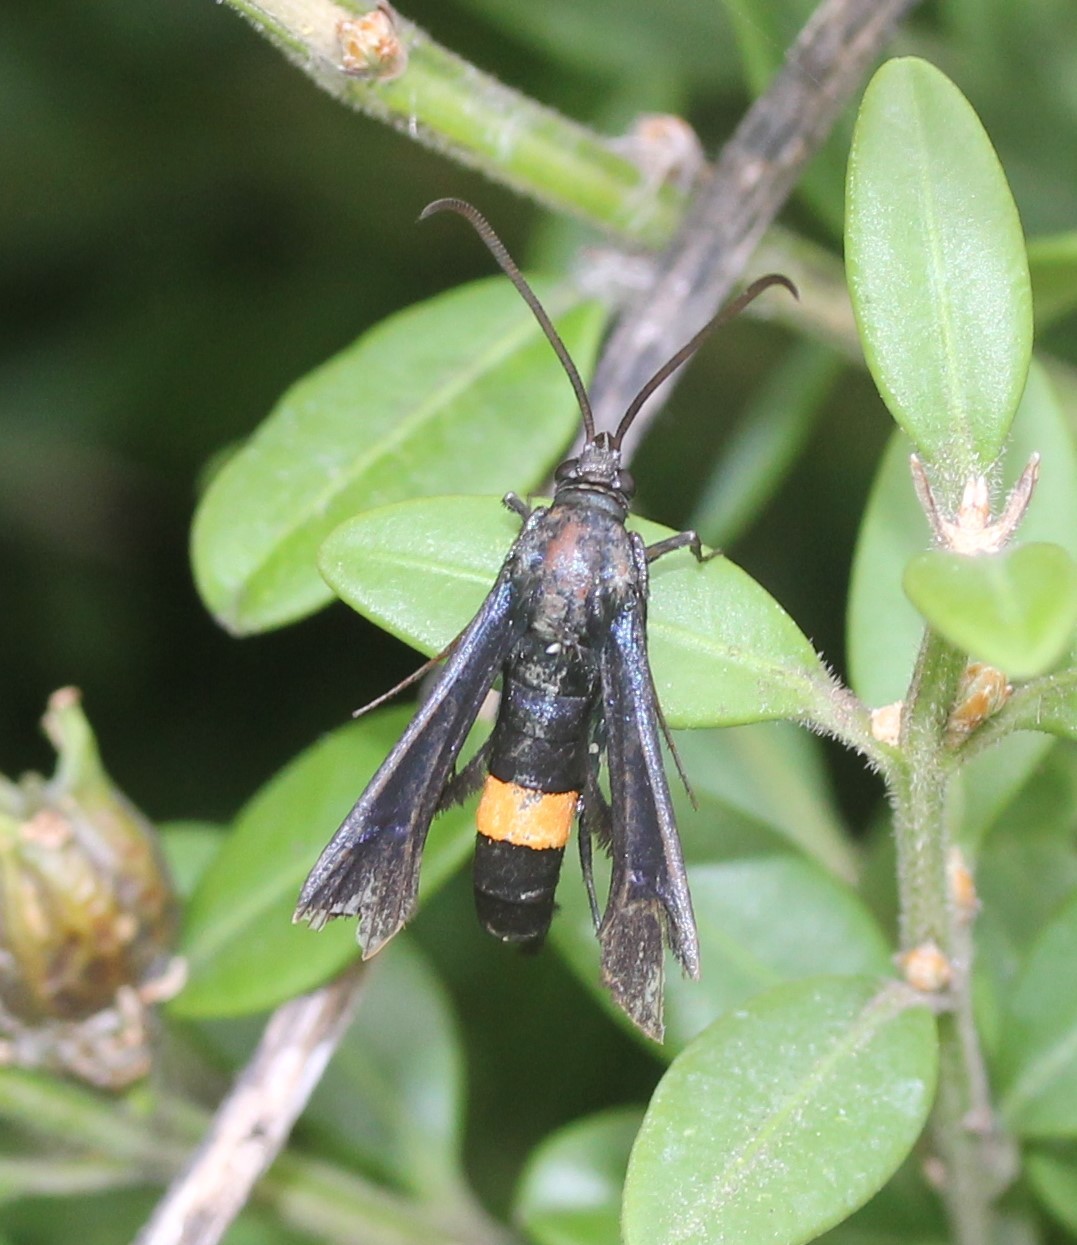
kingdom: Animalia
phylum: Arthropoda
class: Insecta
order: Lepidoptera
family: Sesiidae
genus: Synanthedon
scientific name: Synanthedon exitiosa
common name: Peachtree borer moth
